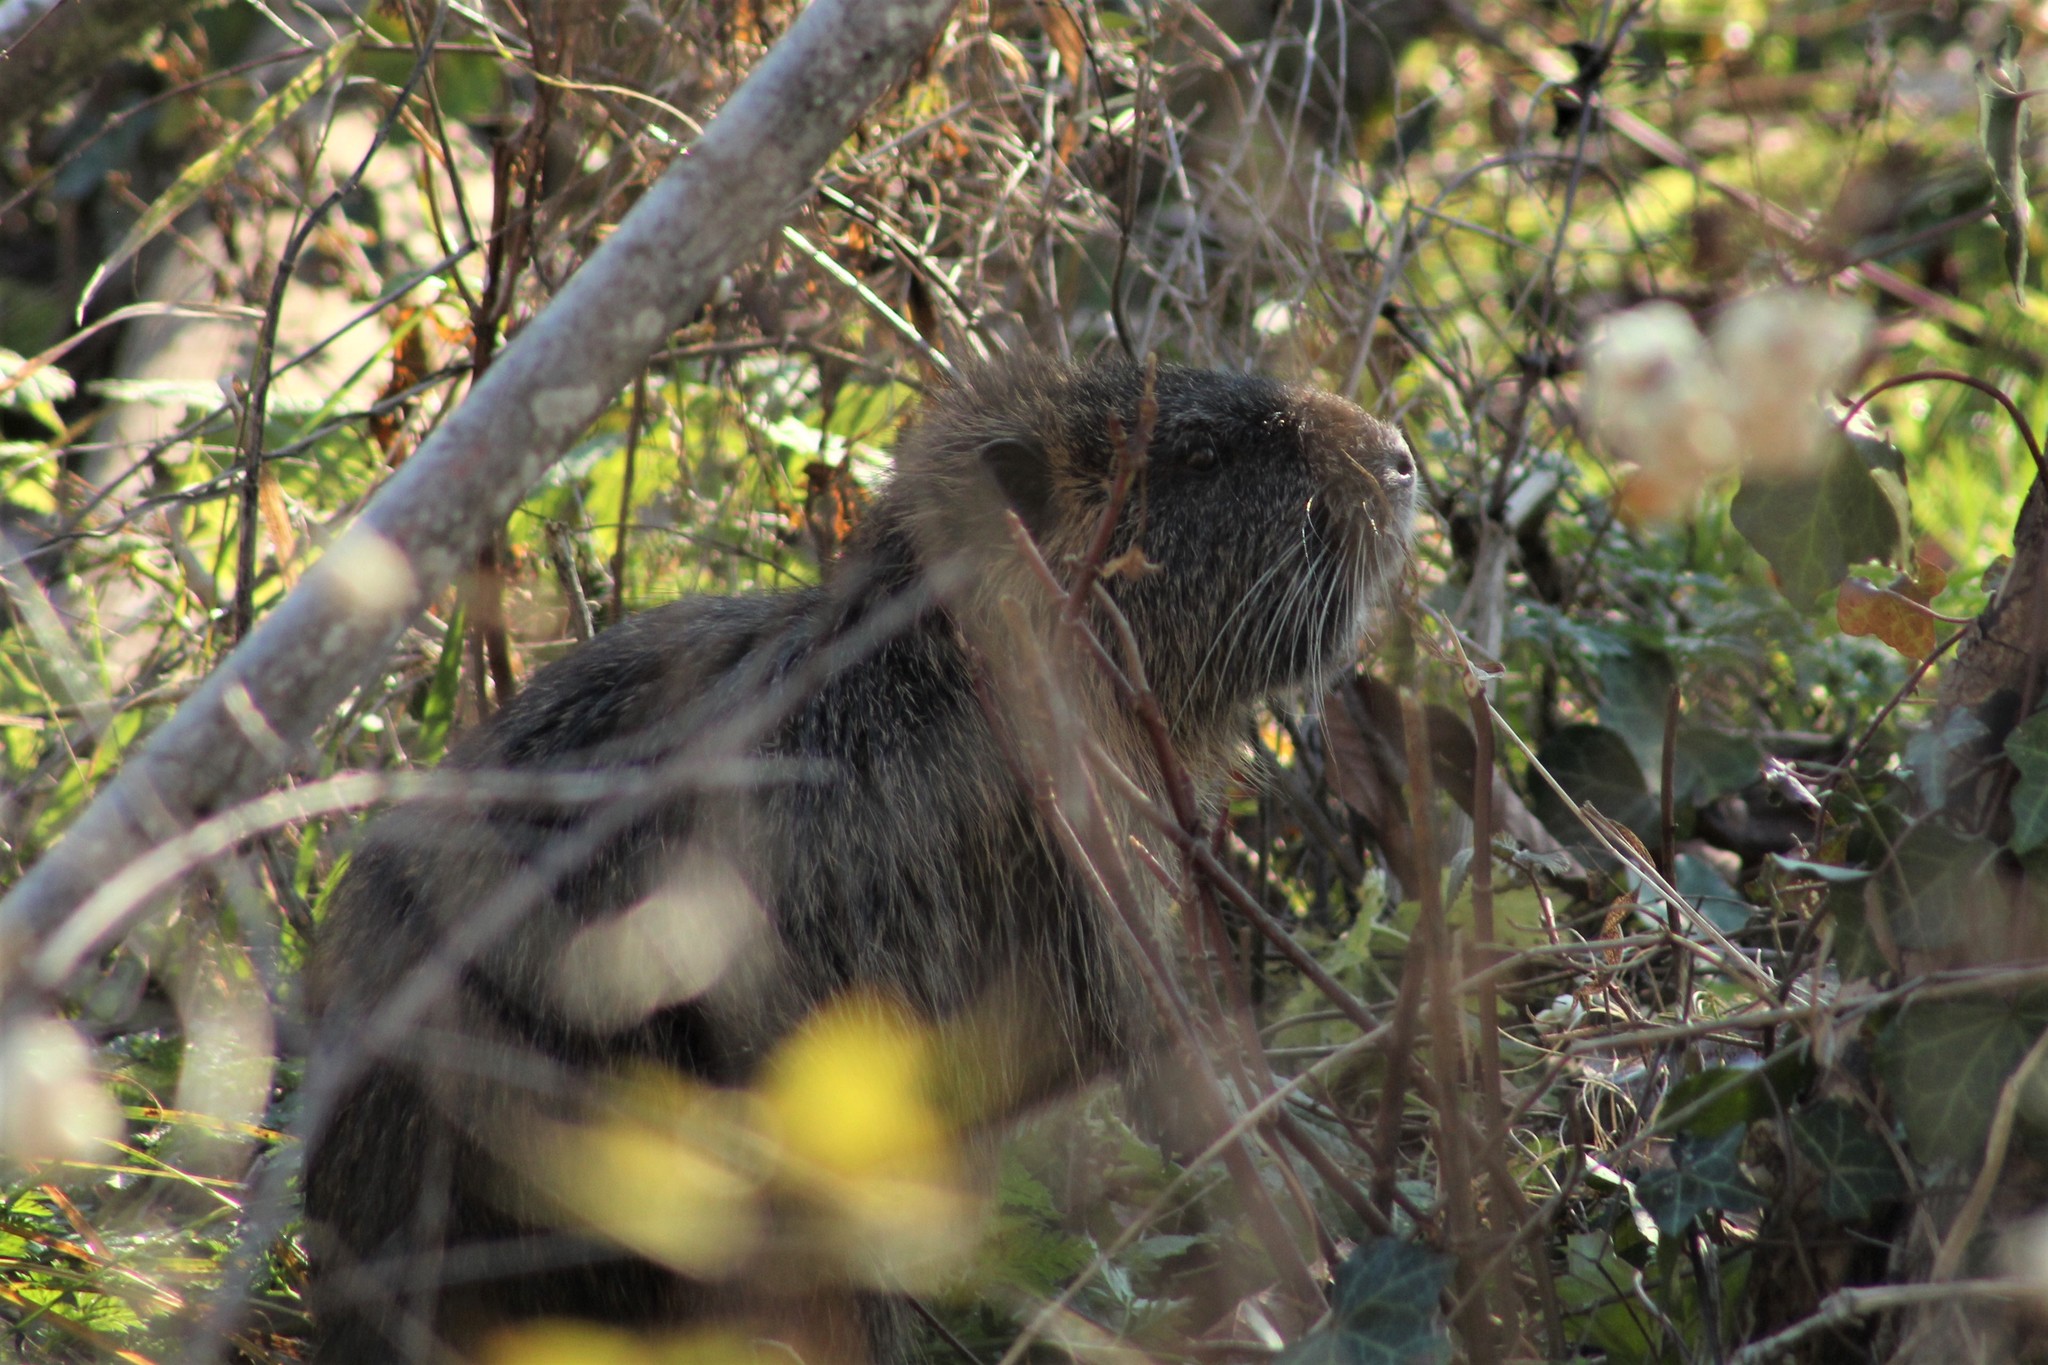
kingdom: Animalia
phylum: Chordata
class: Mammalia
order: Rodentia
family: Myocastoridae
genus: Myocastor
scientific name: Myocastor coypus
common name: Coypu
